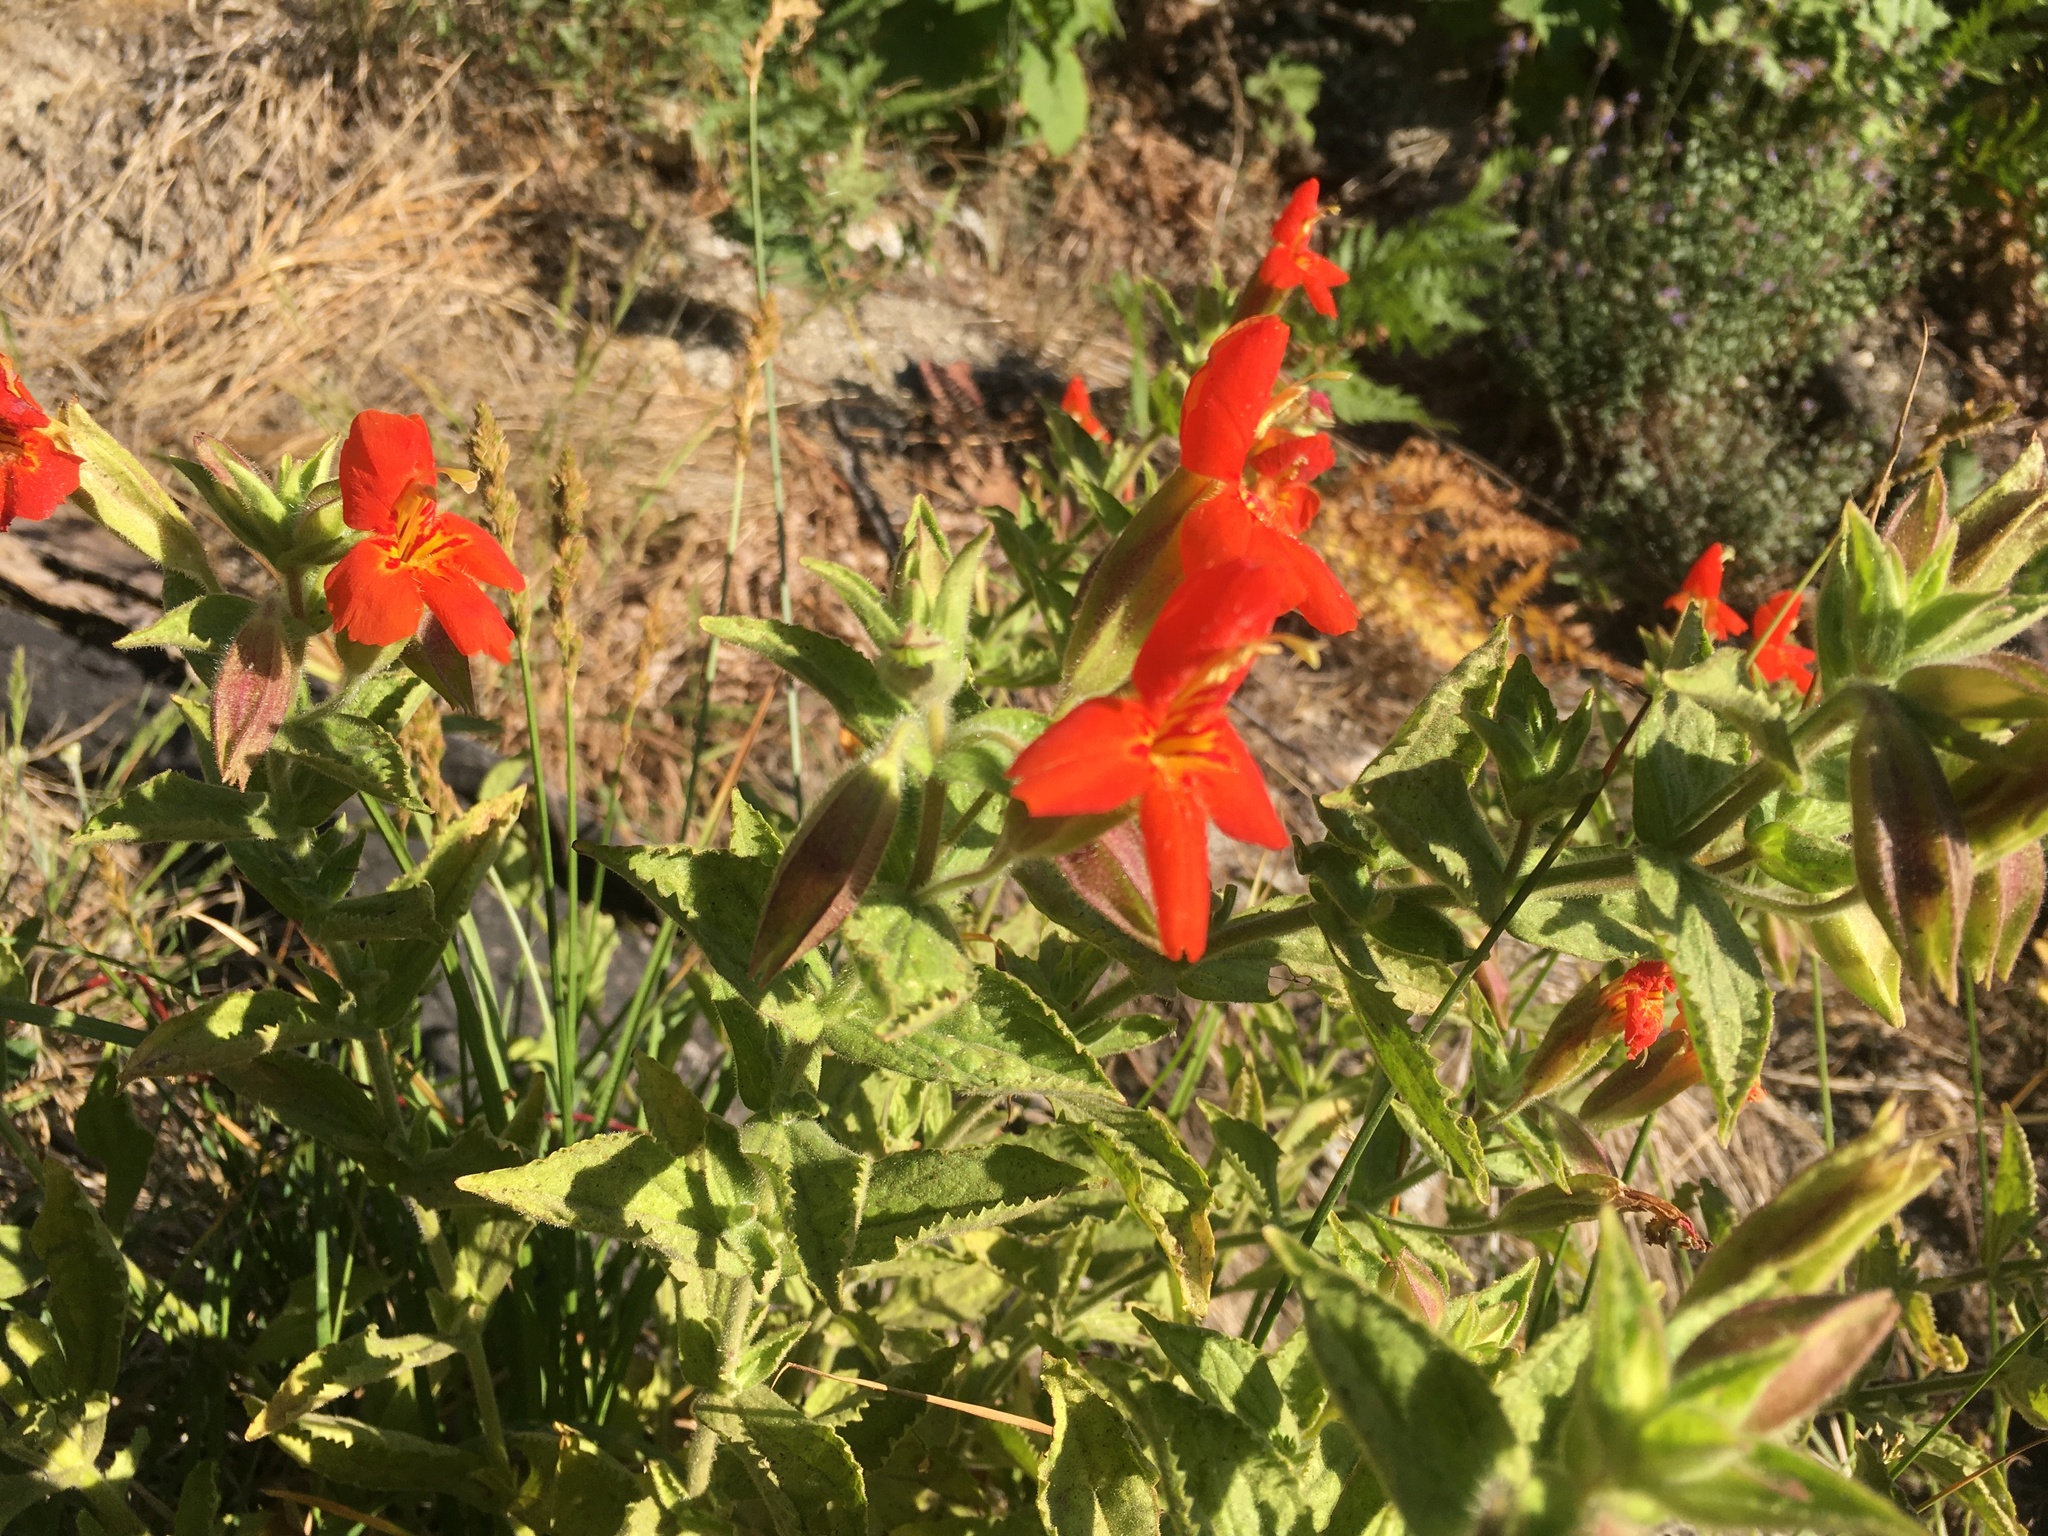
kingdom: Plantae
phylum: Tracheophyta
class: Magnoliopsida
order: Lamiales
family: Phrymaceae
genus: Erythranthe
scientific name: Erythranthe cardinalis
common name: Scarlet monkey-flower
